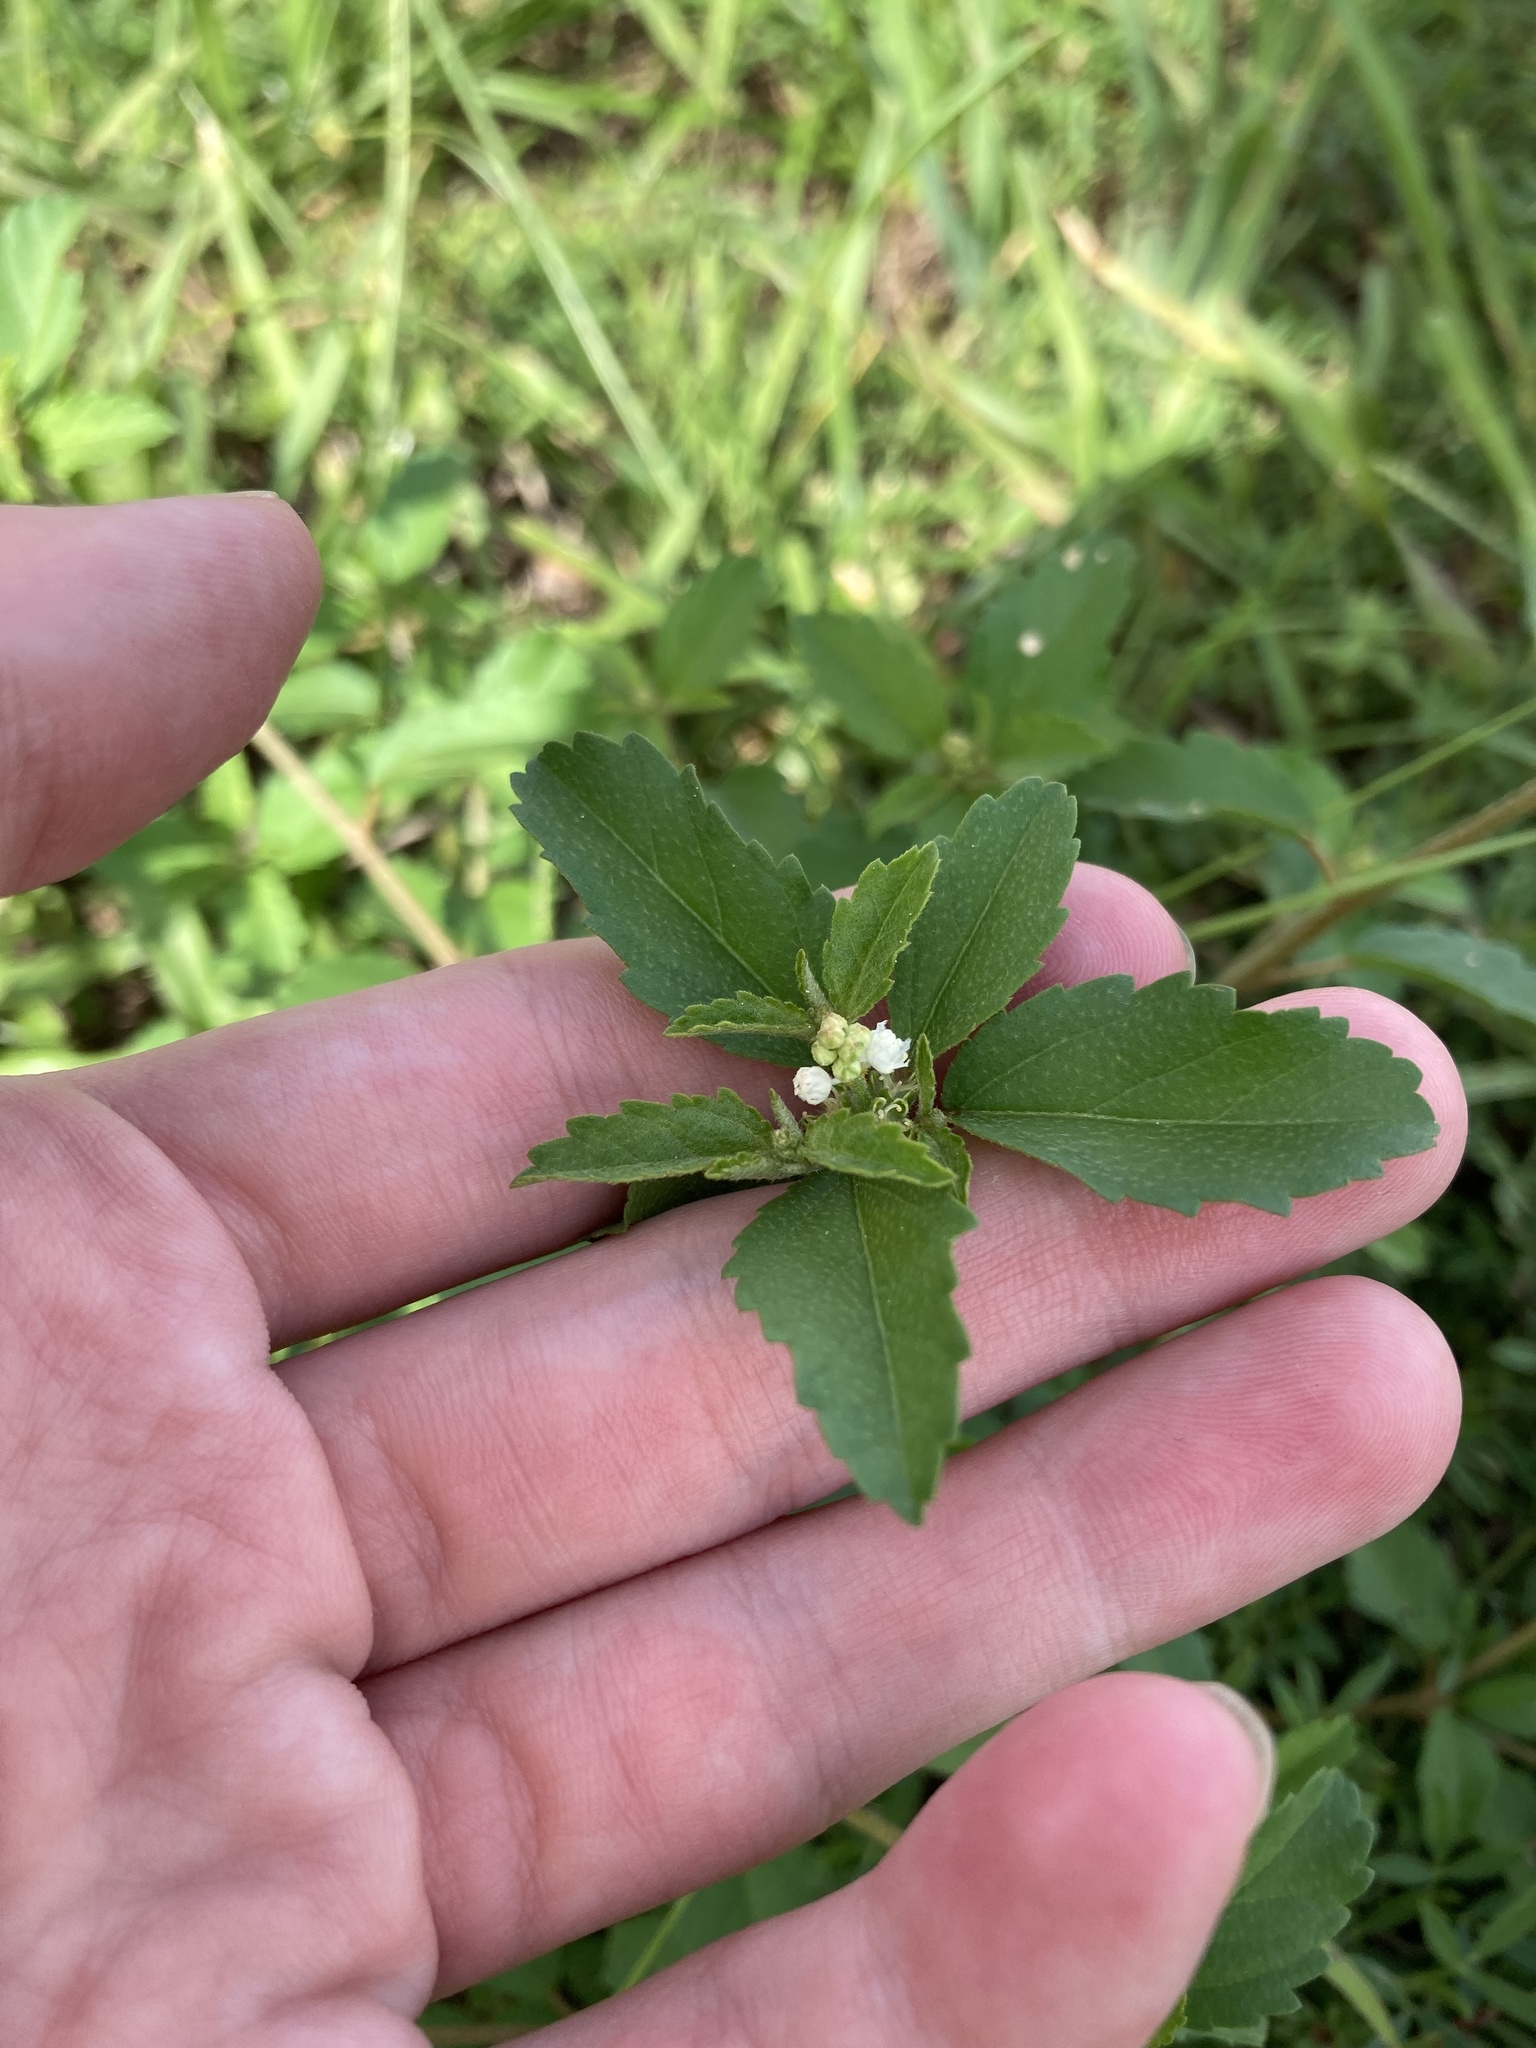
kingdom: Plantae
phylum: Tracheophyta
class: Magnoliopsida
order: Malpighiales
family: Euphorbiaceae
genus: Croton
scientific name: Croton glandulosus
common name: Tropic croton
